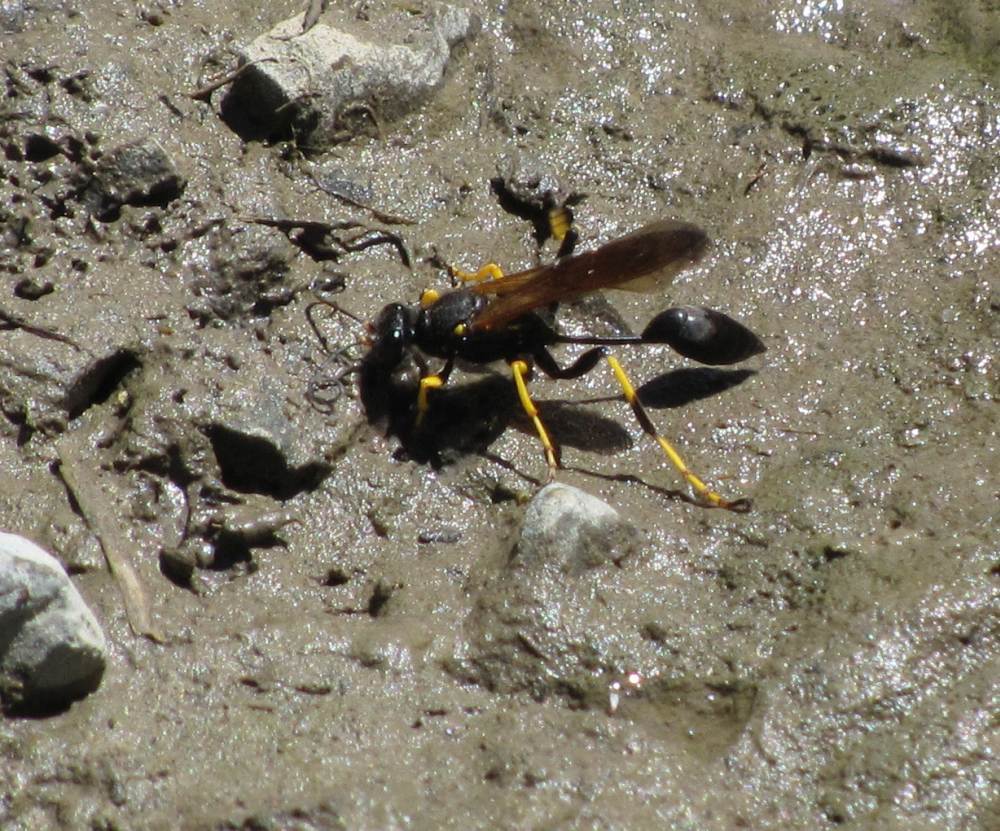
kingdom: Animalia
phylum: Arthropoda
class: Insecta
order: Hymenoptera
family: Sphecidae
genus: Sceliphron
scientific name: Sceliphron caementarium
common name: Mud dauber
